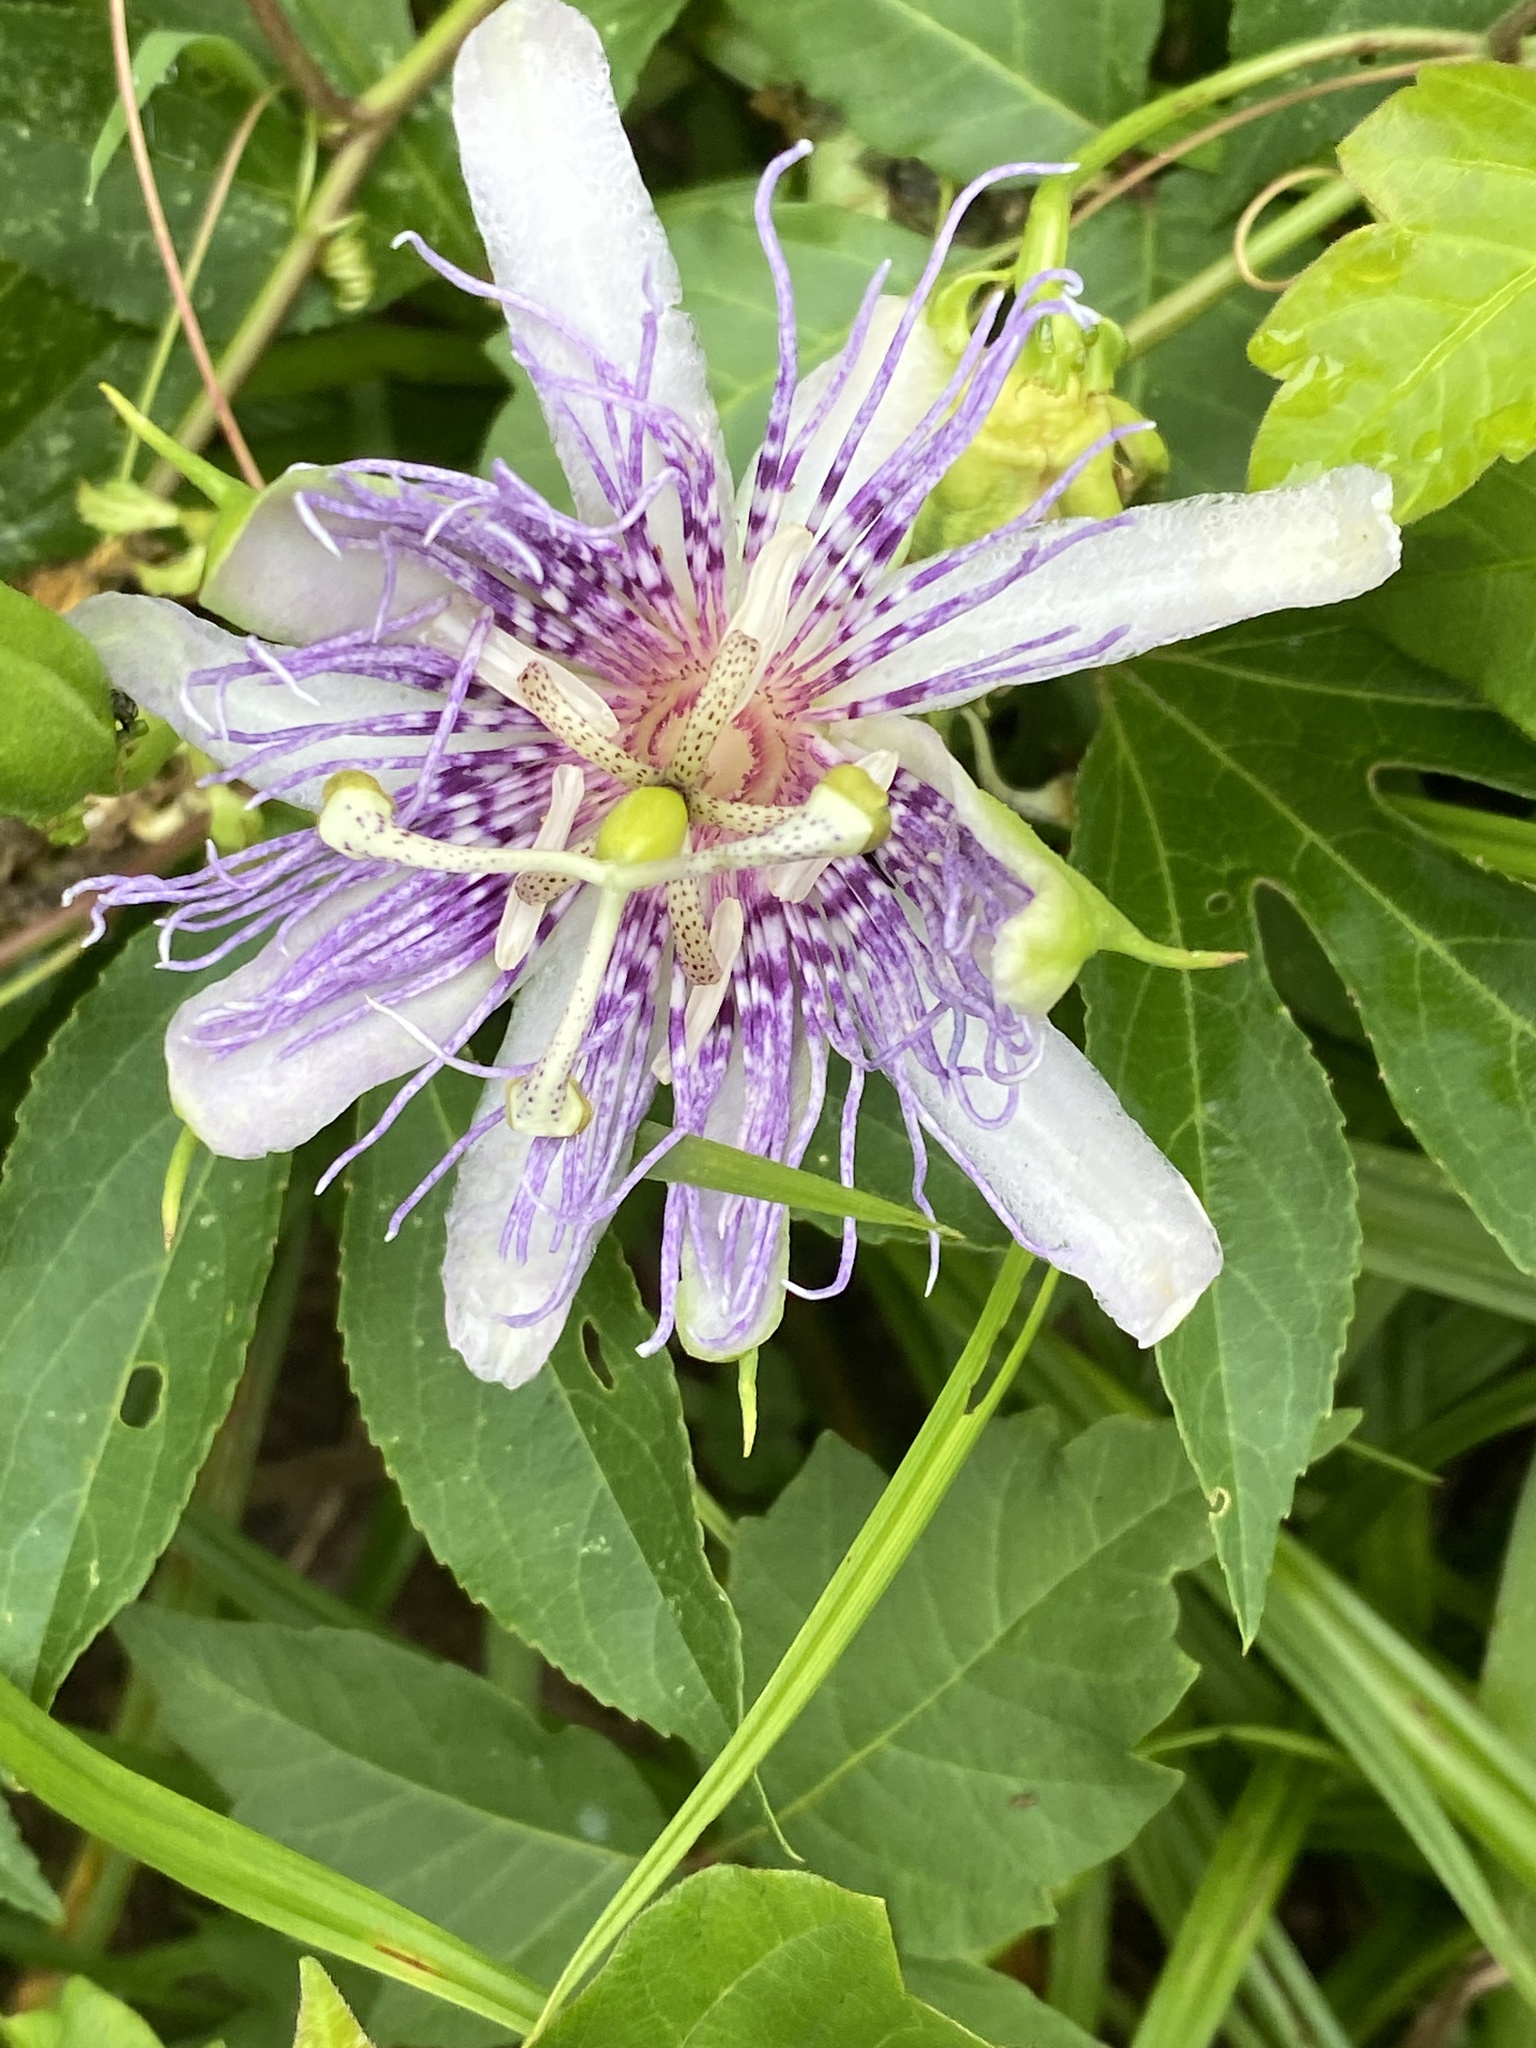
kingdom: Plantae
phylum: Tracheophyta
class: Magnoliopsida
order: Malpighiales
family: Passifloraceae
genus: Passiflora
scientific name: Passiflora incarnata
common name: Apricot-vine
